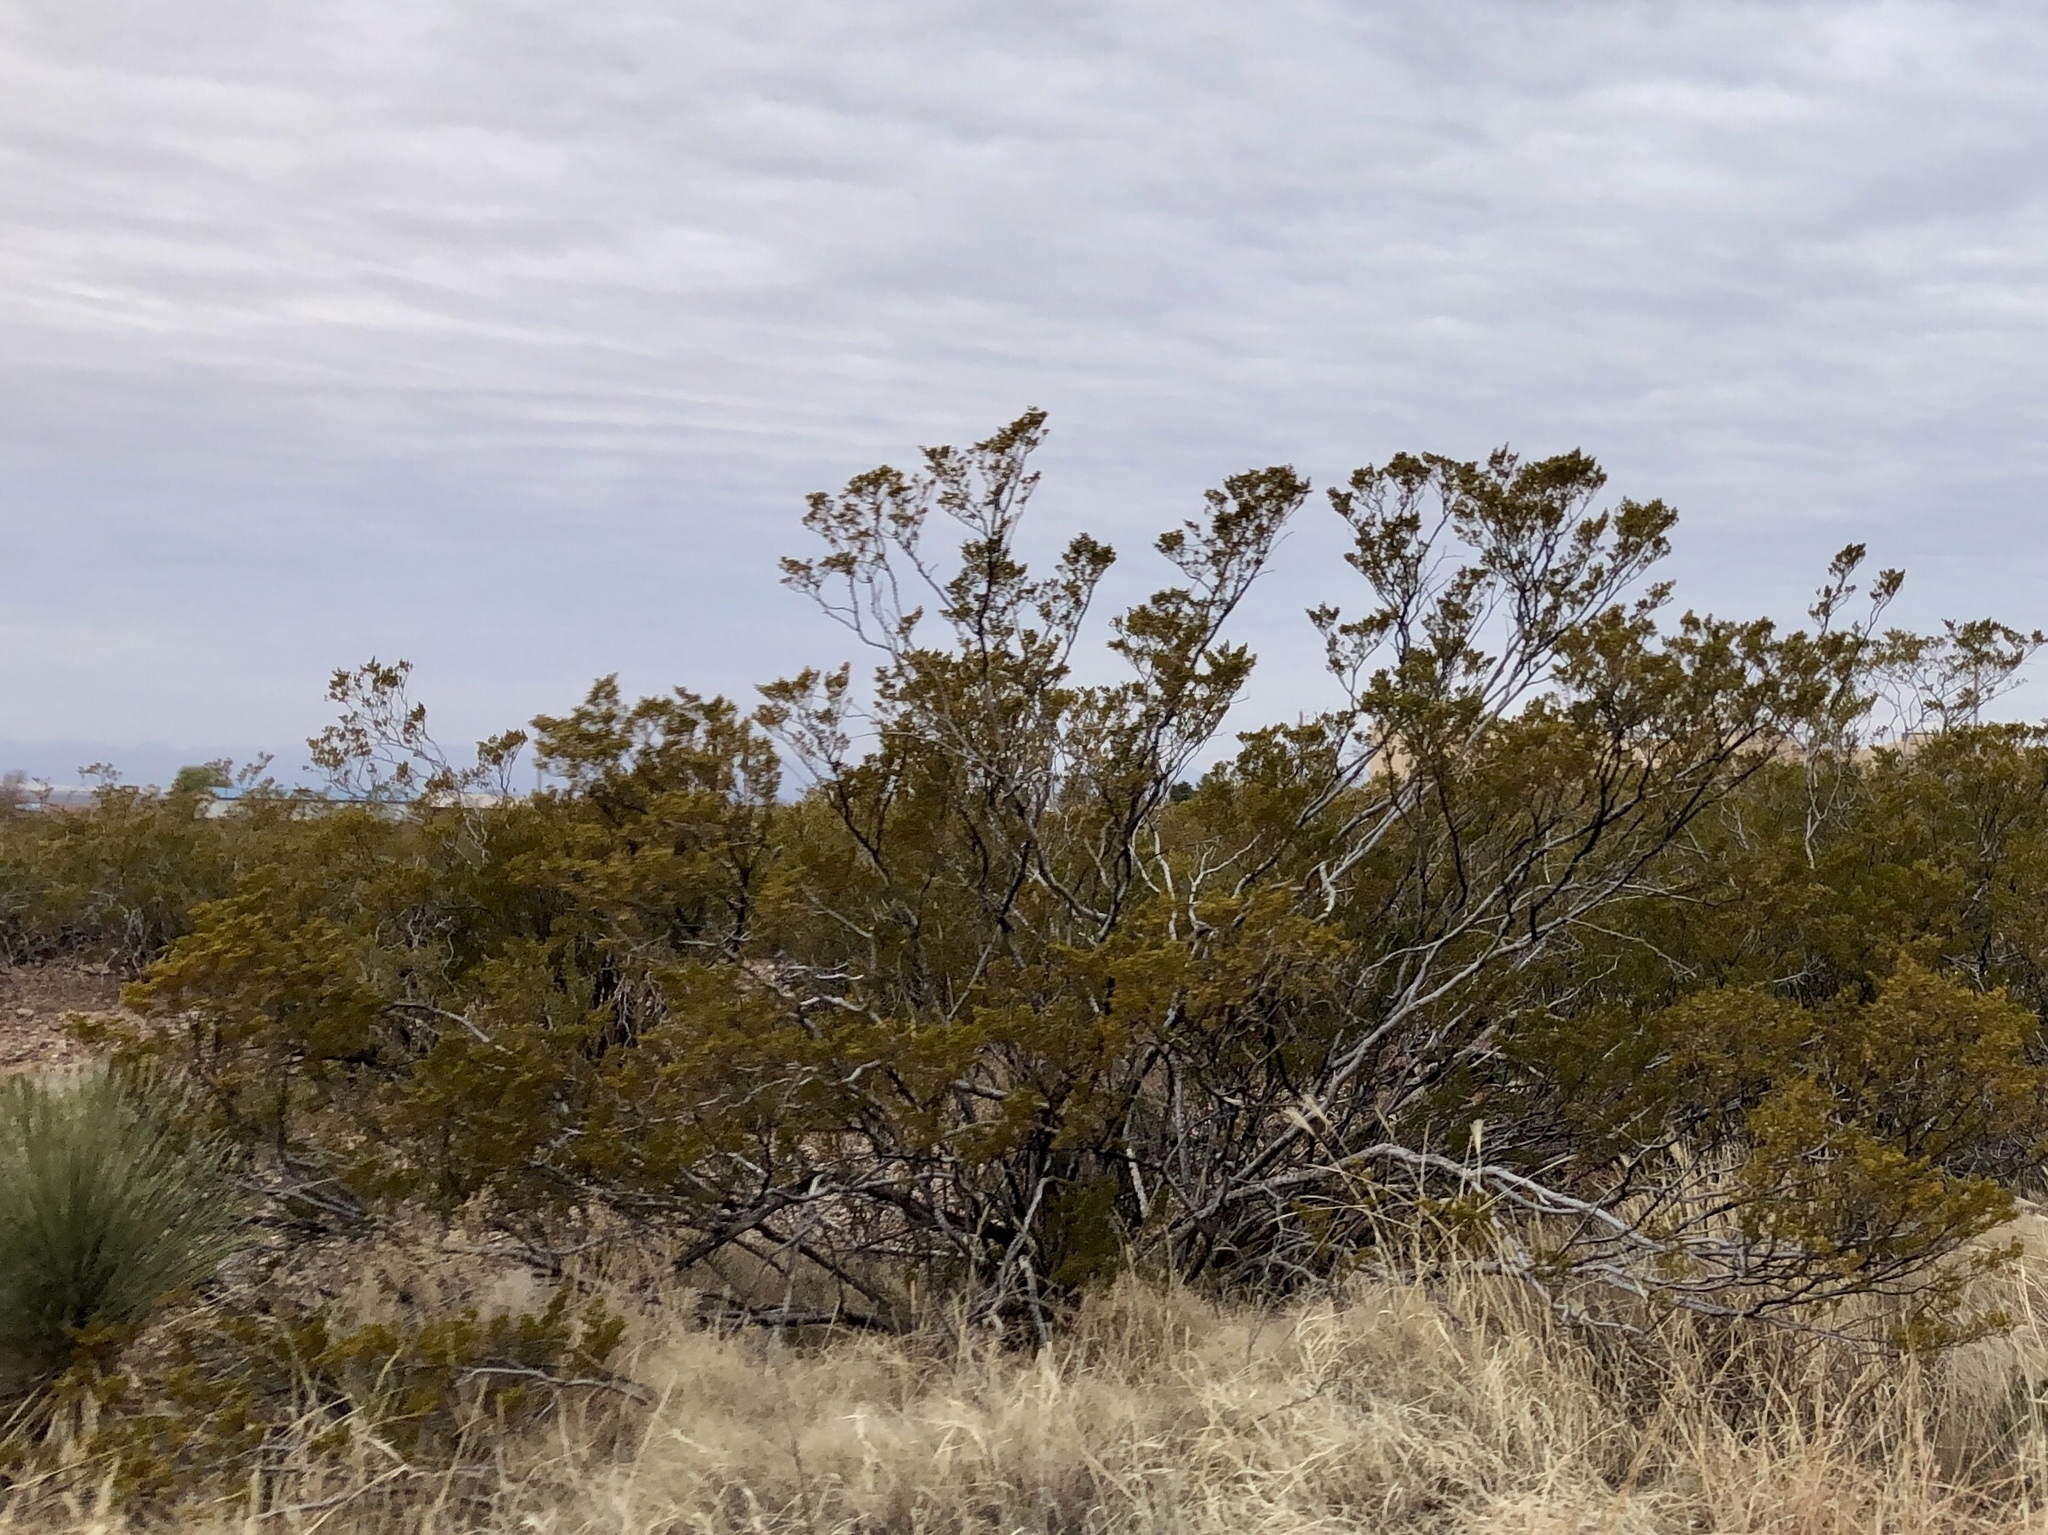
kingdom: Plantae
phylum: Tracheophyta
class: Magnoliopsida
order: Zygophyllales
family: Zygophyllaceae
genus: Larrea
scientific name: Larrea tridentata
